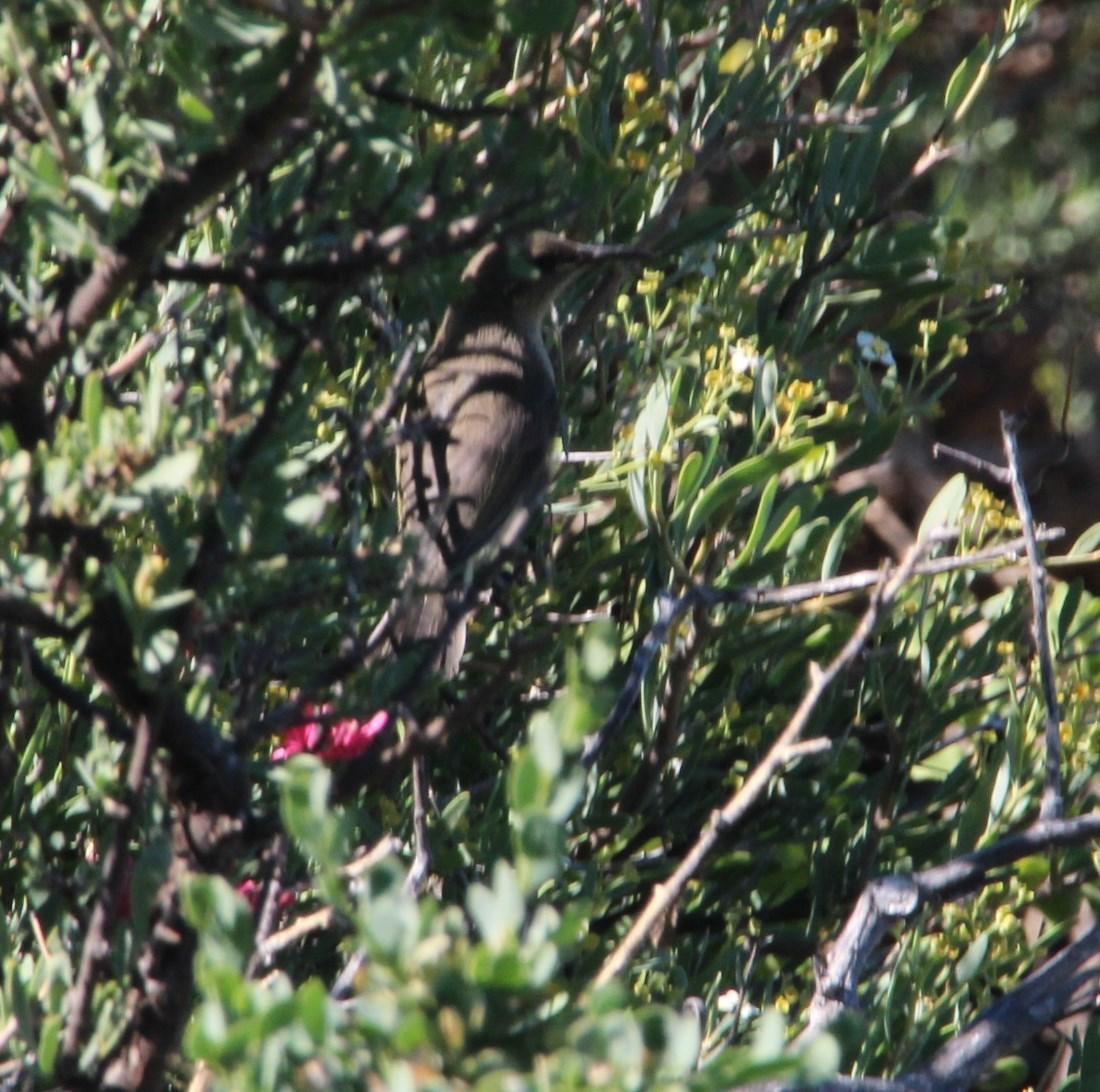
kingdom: Animalia
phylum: Chordata
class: Aves
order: Passeriformes
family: Nectariniidae
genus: Cinnyris
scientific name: Cinnyris chalybeus
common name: Southern double-collared sunbird
